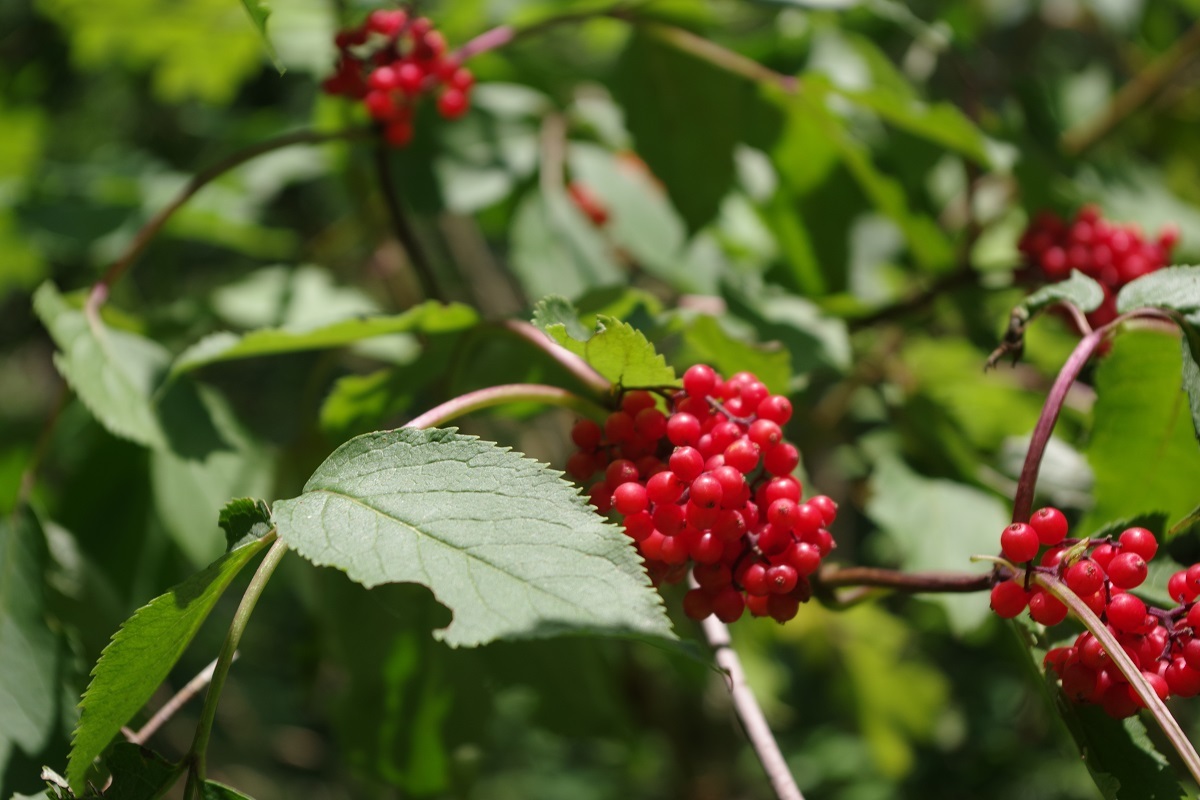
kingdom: Plantae
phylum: Tracheophyta
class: Magnoliopsida
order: Dipsacales
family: Viburnaceae
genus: Sambucus
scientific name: Sambucus racemosa
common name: Red-berried elder
